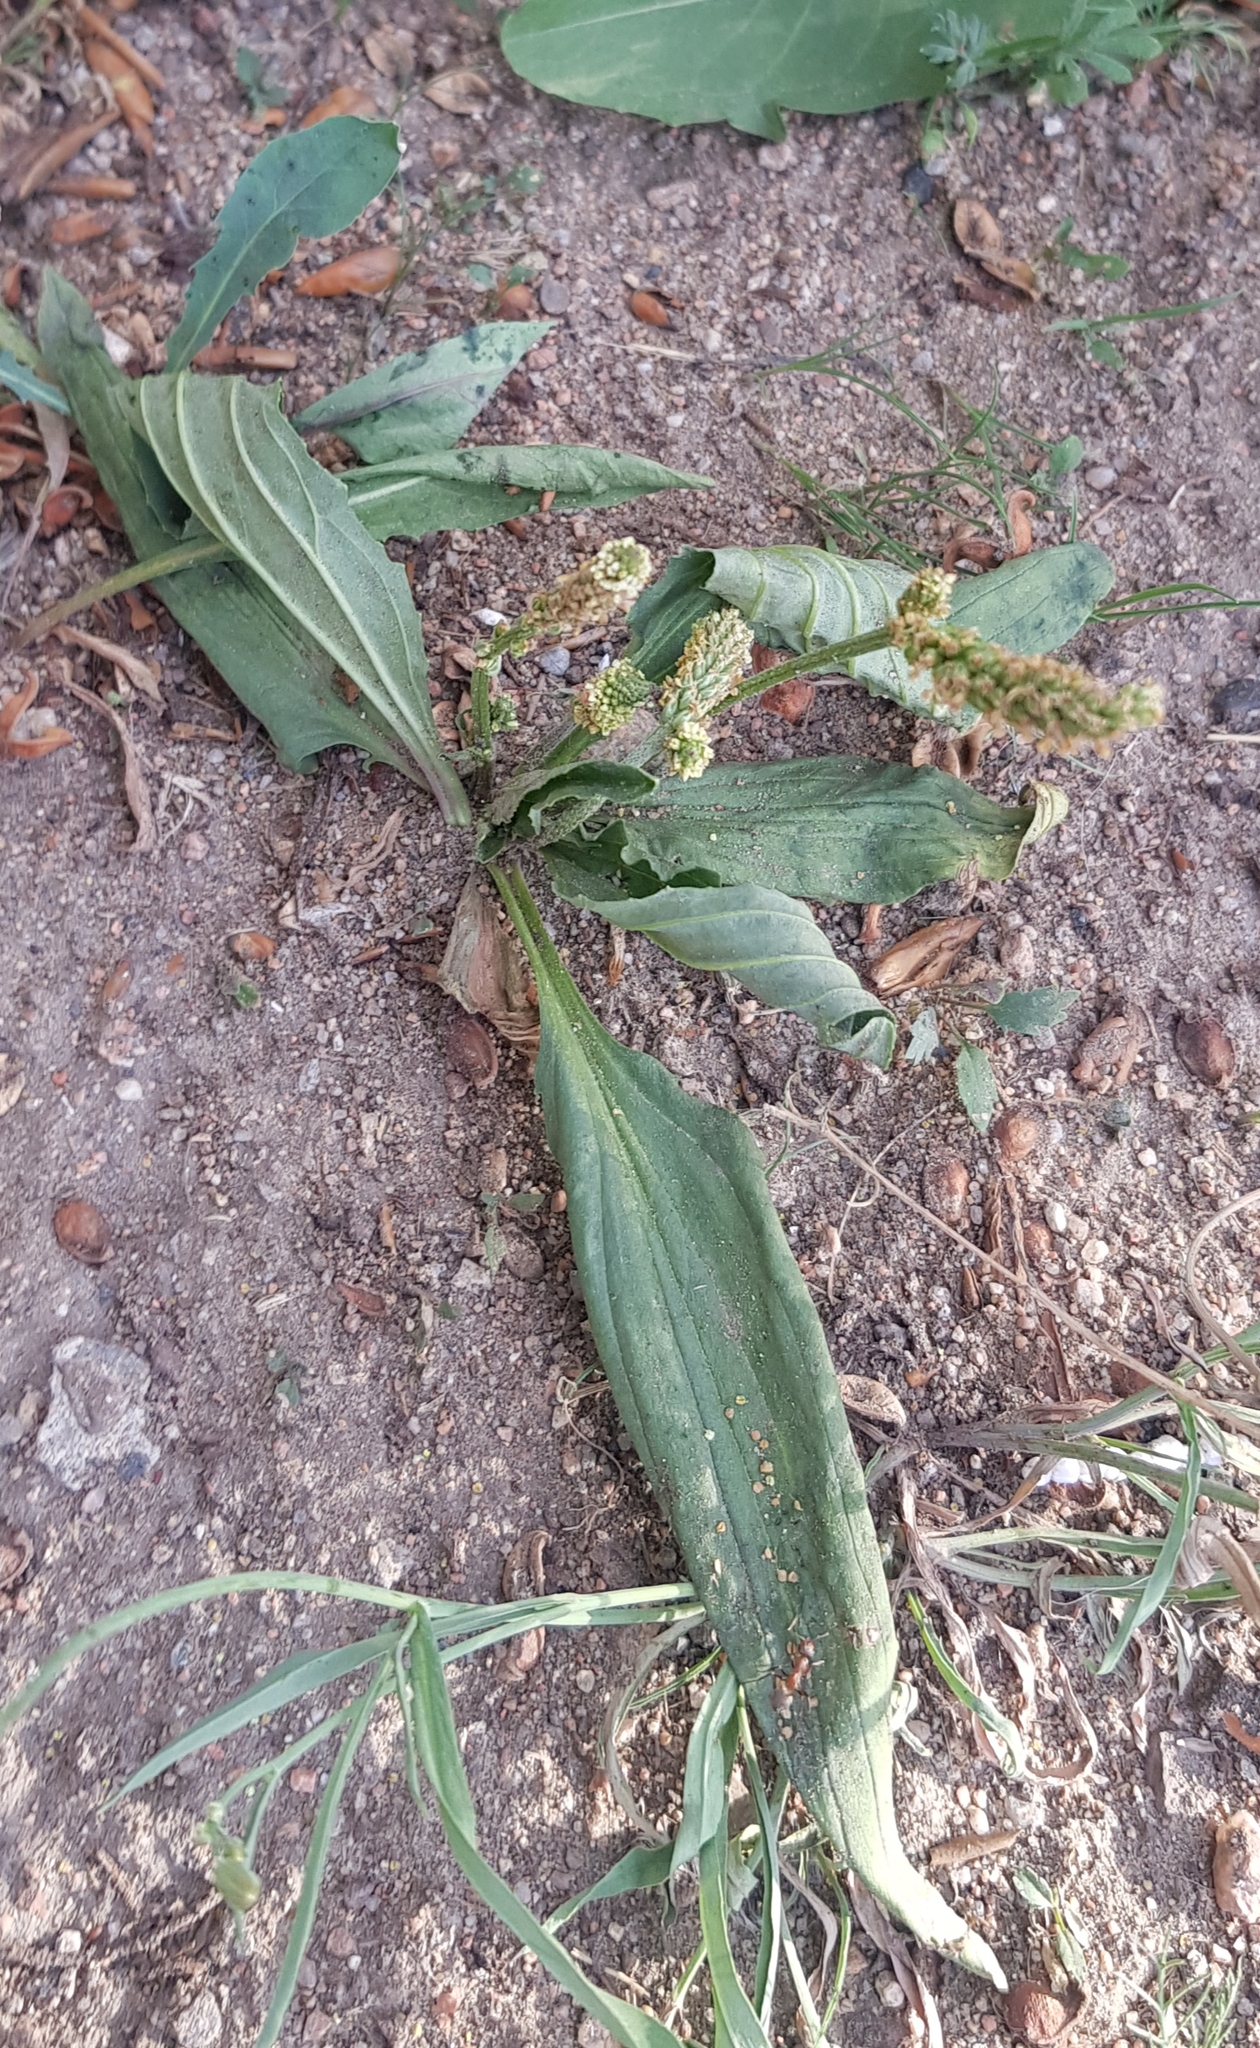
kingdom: Plantae
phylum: Tracheophyta
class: Magnoliopsida
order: Lamiales
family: Plantaginaceae
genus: Plantago
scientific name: Plantago depressa
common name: Depressed plantain
